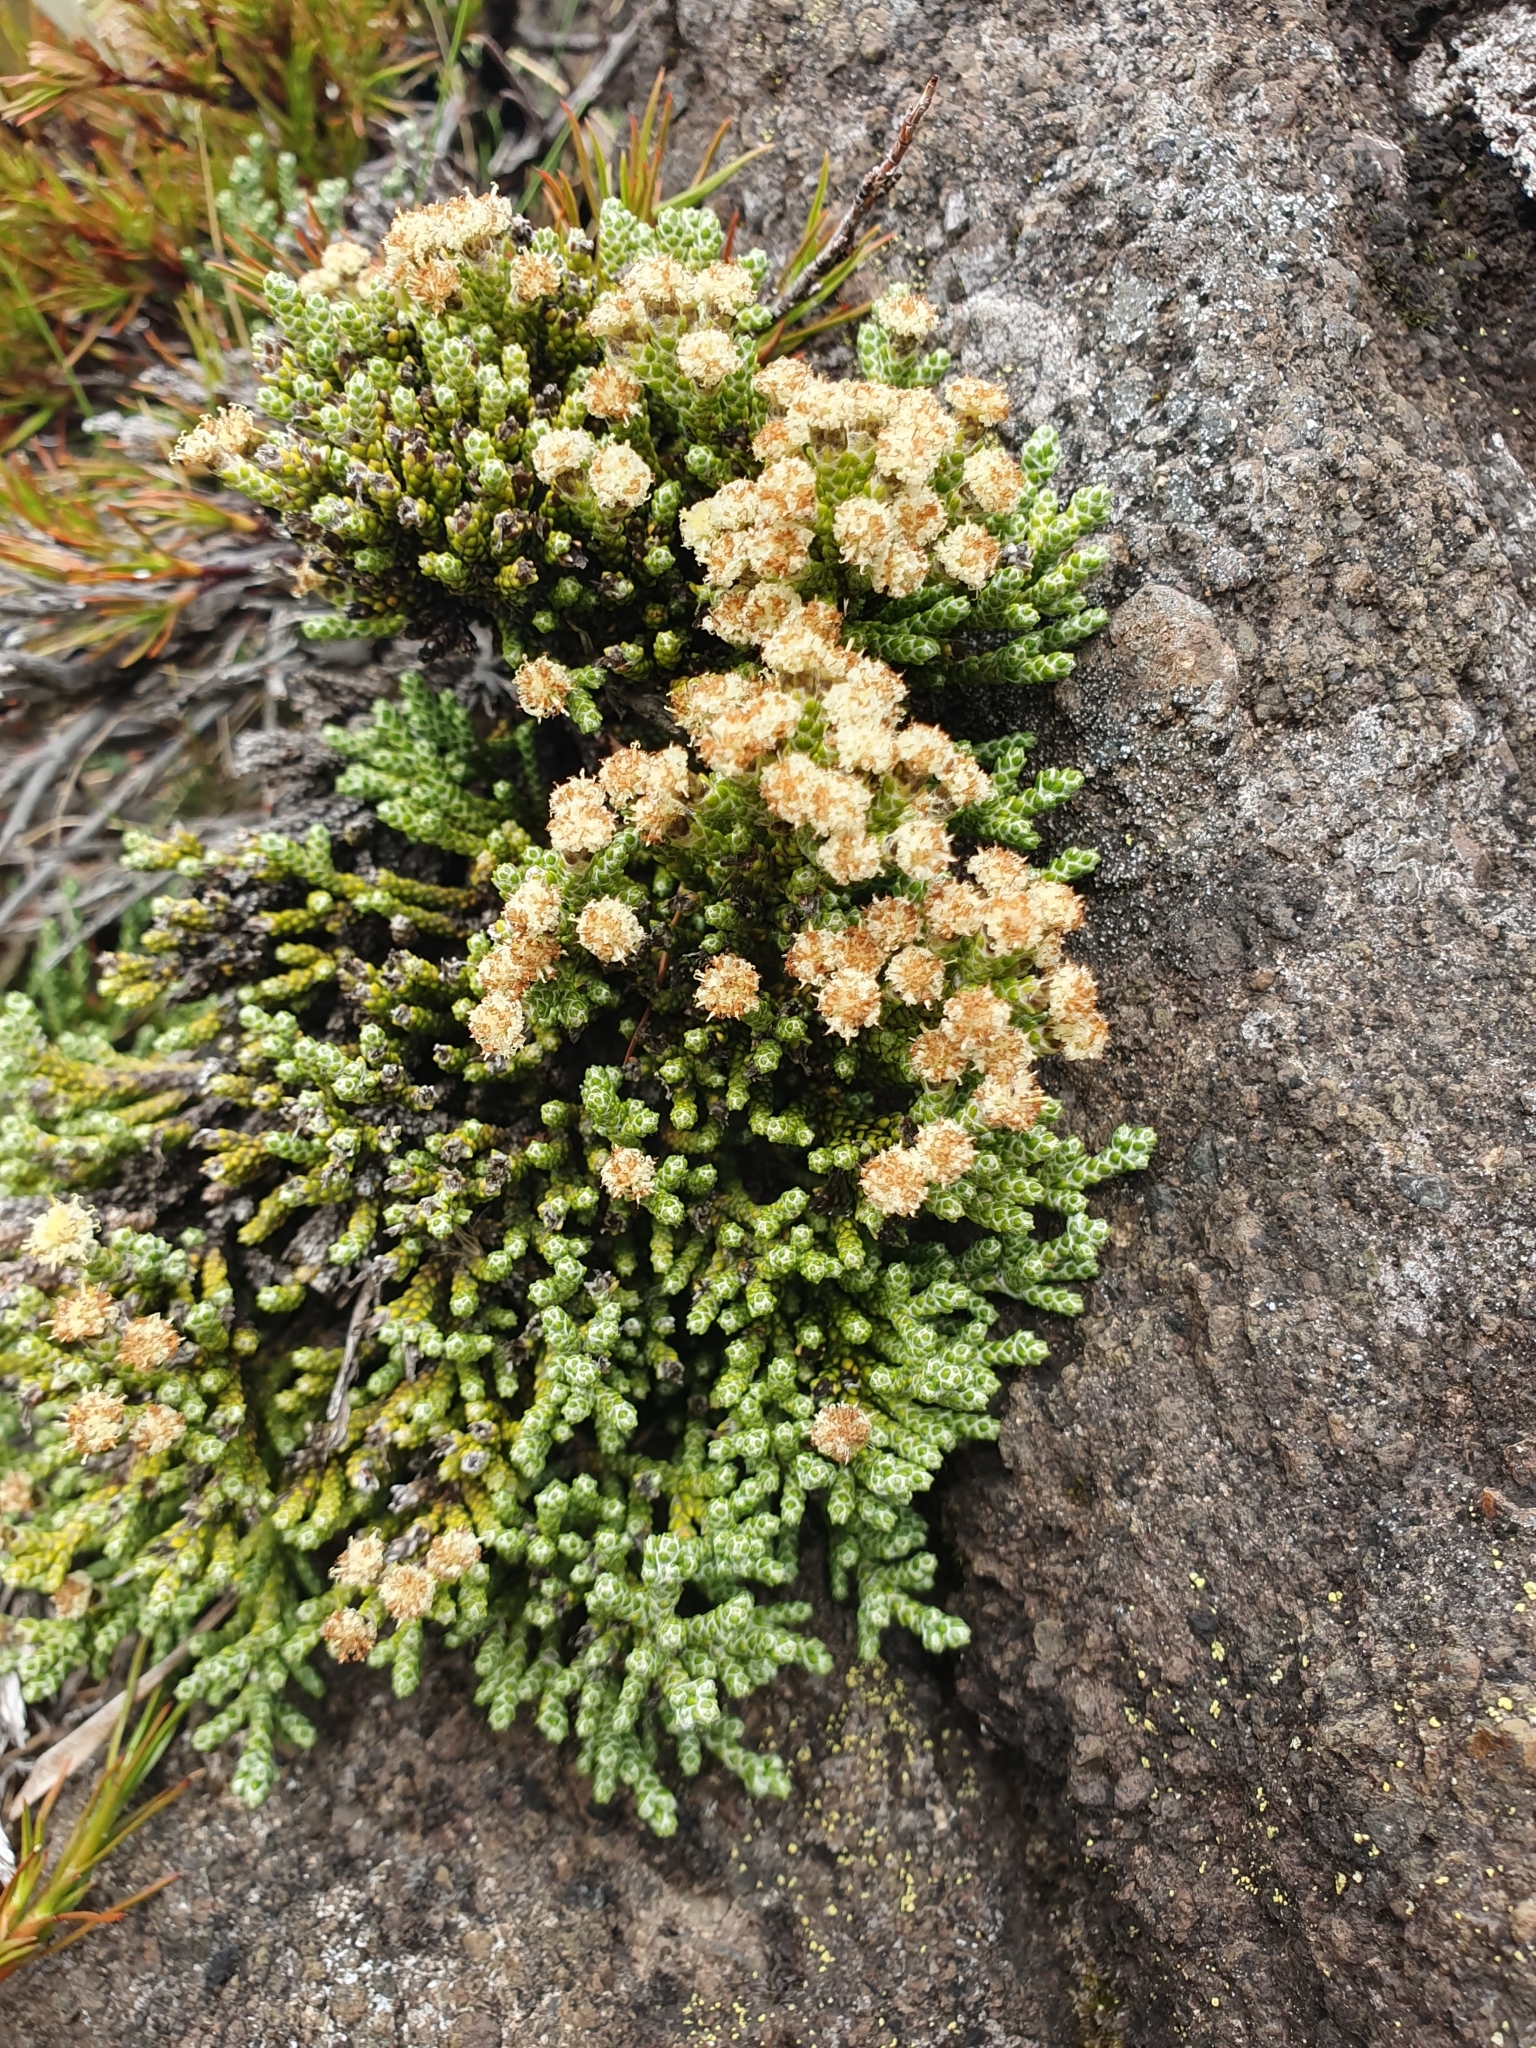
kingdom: Plantae
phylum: Tracheophyta
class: Magnoliopsida
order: Asterales
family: Asteraceae
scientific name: Asteraceae
